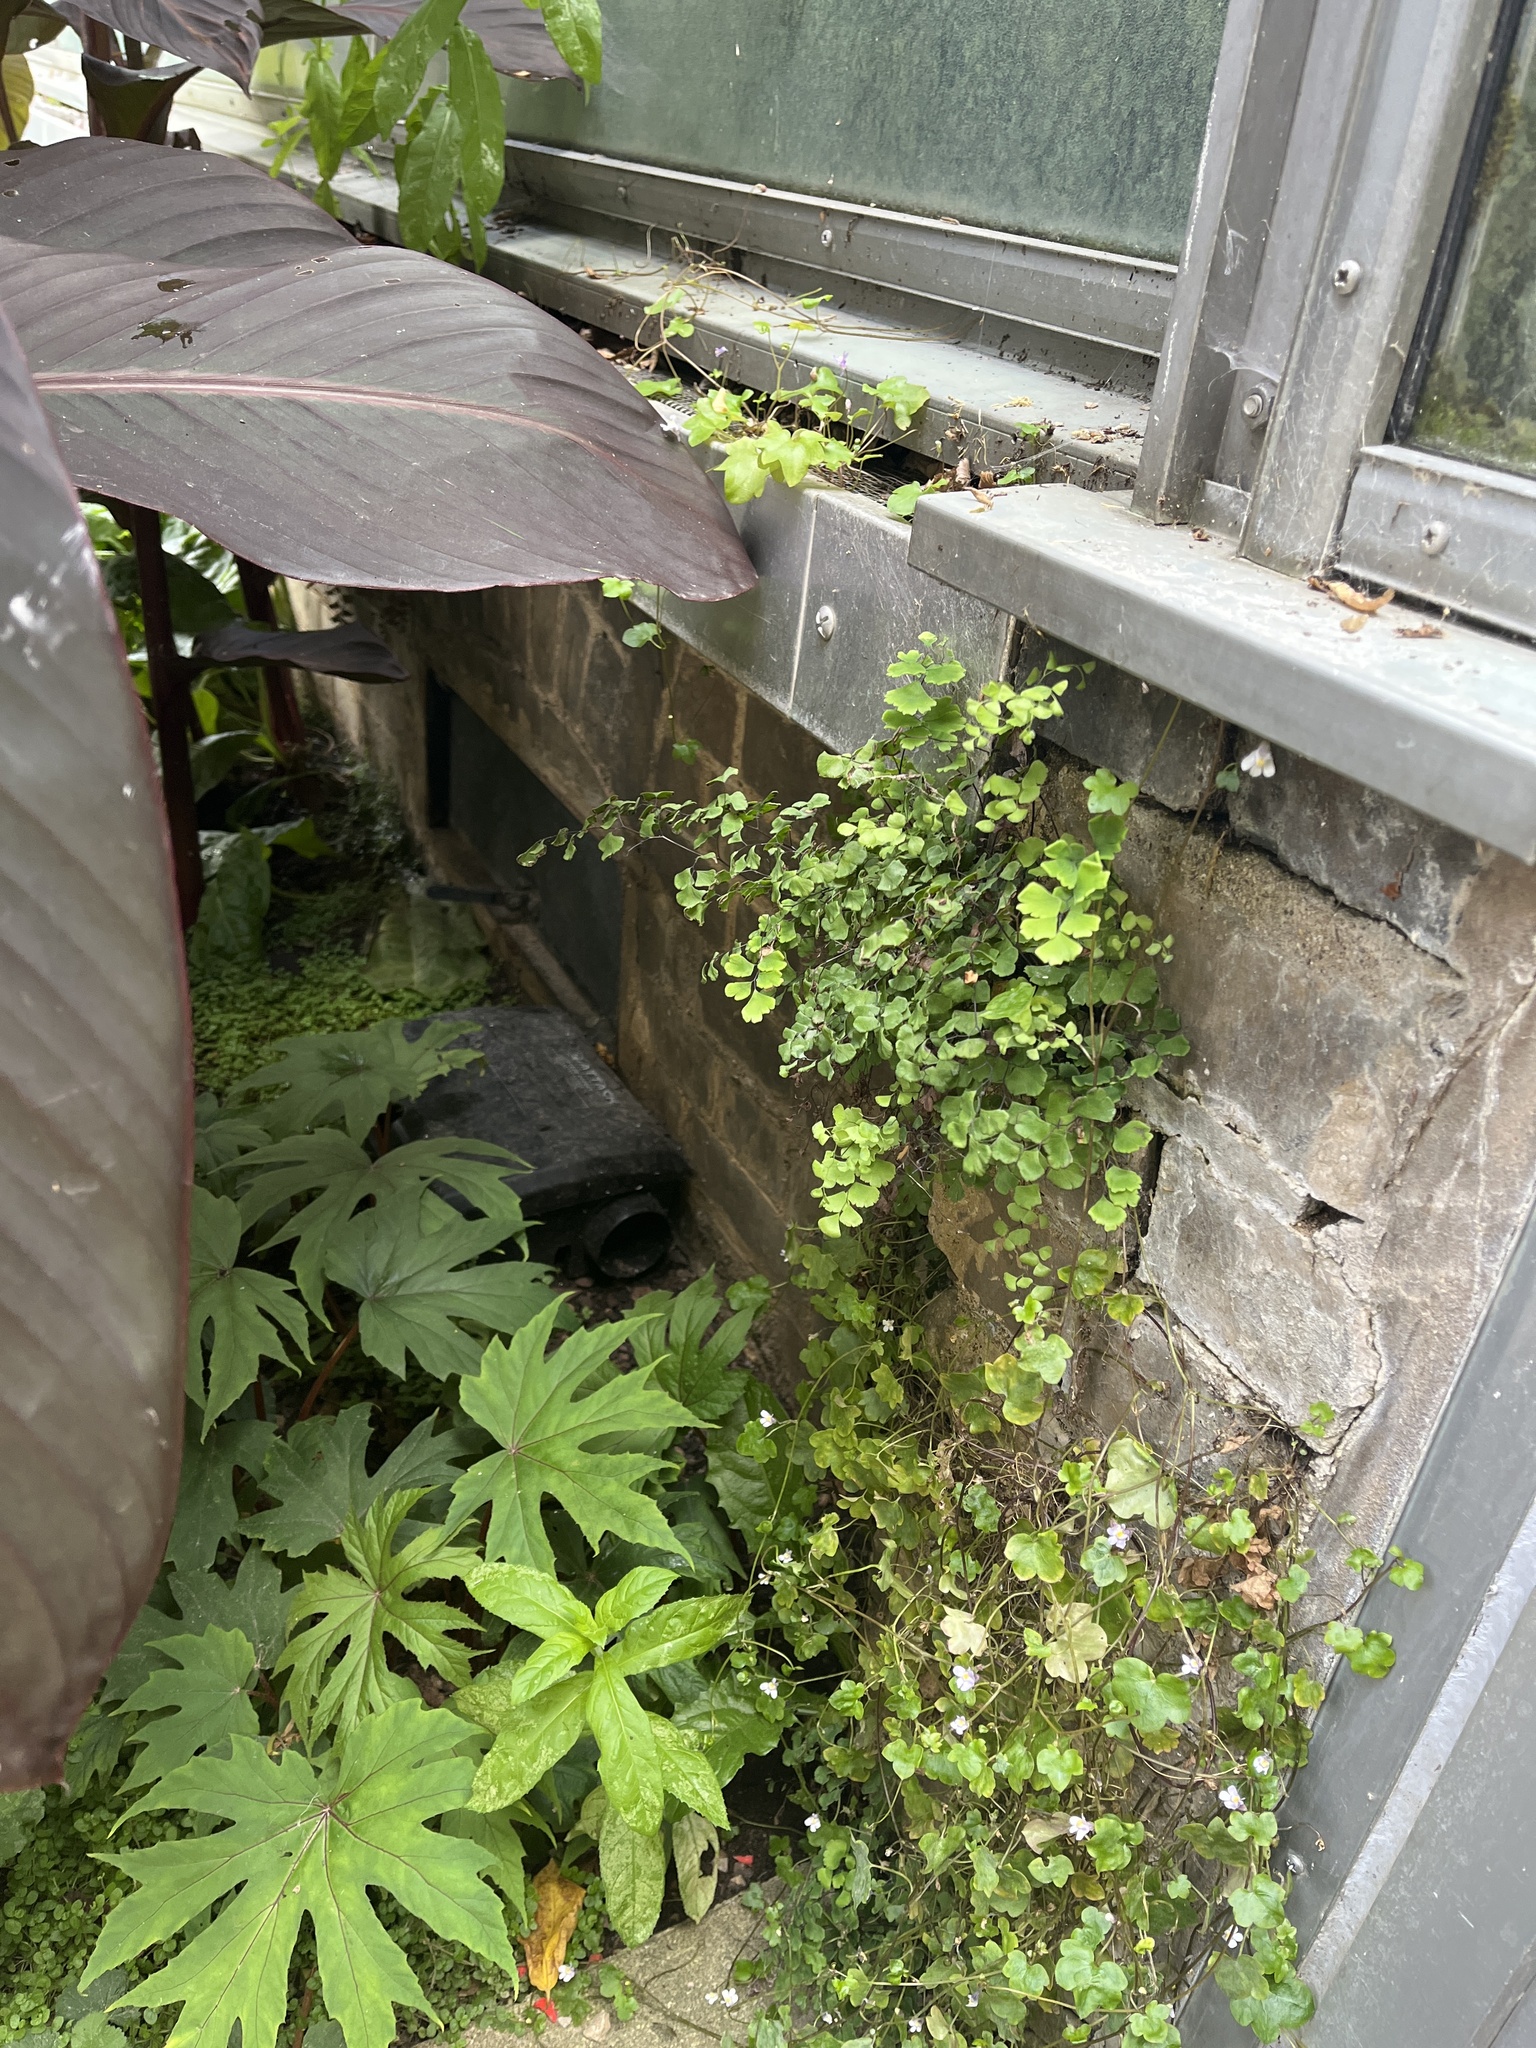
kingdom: Plantae
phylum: Tracheophyta
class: Polypodiopsida
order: Polypodiales
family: Pteridaceae
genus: Adiantum
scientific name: Adiantum capillus-veneris
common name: Maidenhair fern
